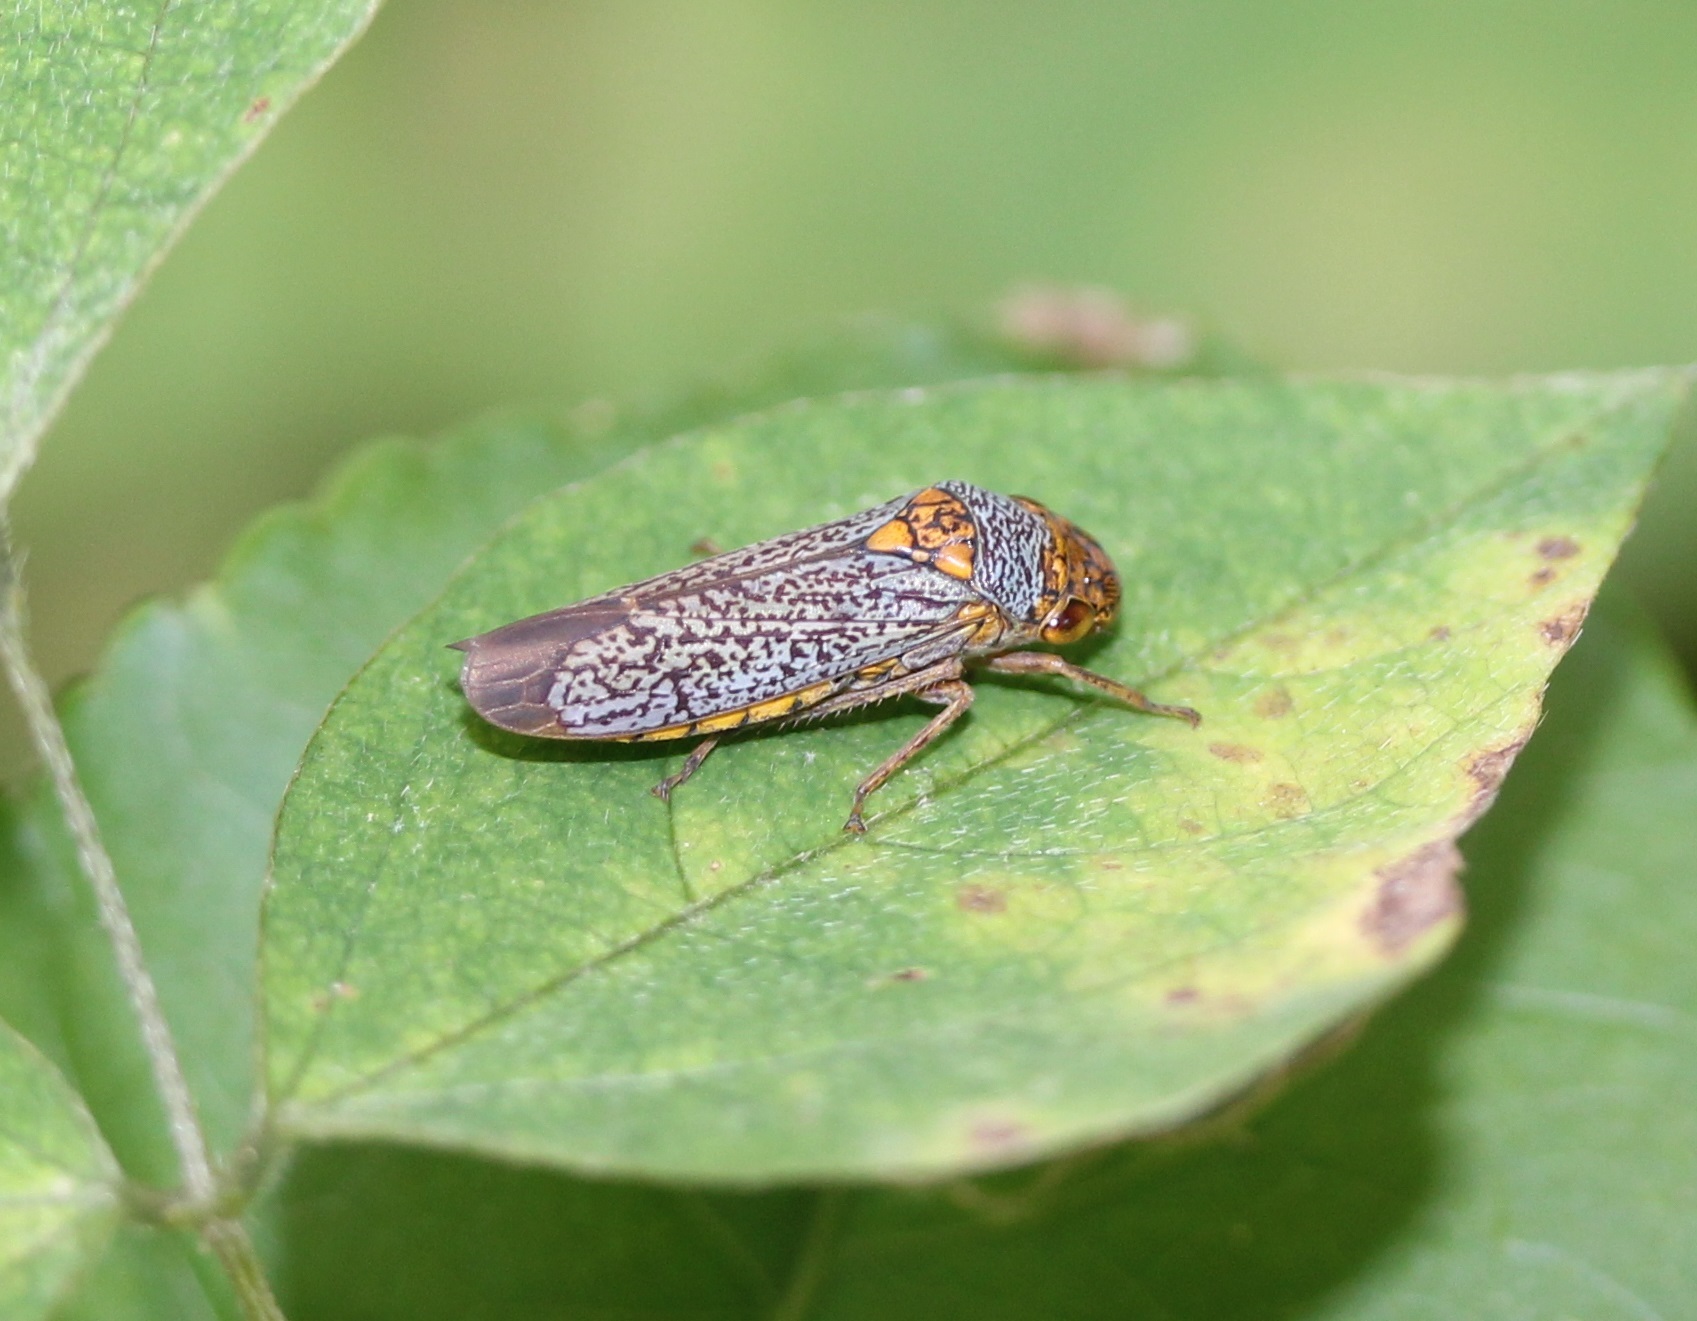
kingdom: Animalia
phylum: Arthropoda
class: Insecta
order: Hemiptera
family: Cicadellidae
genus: Oncometopia
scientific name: Oncometopia orbona
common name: Broad-headed sharpshooter
